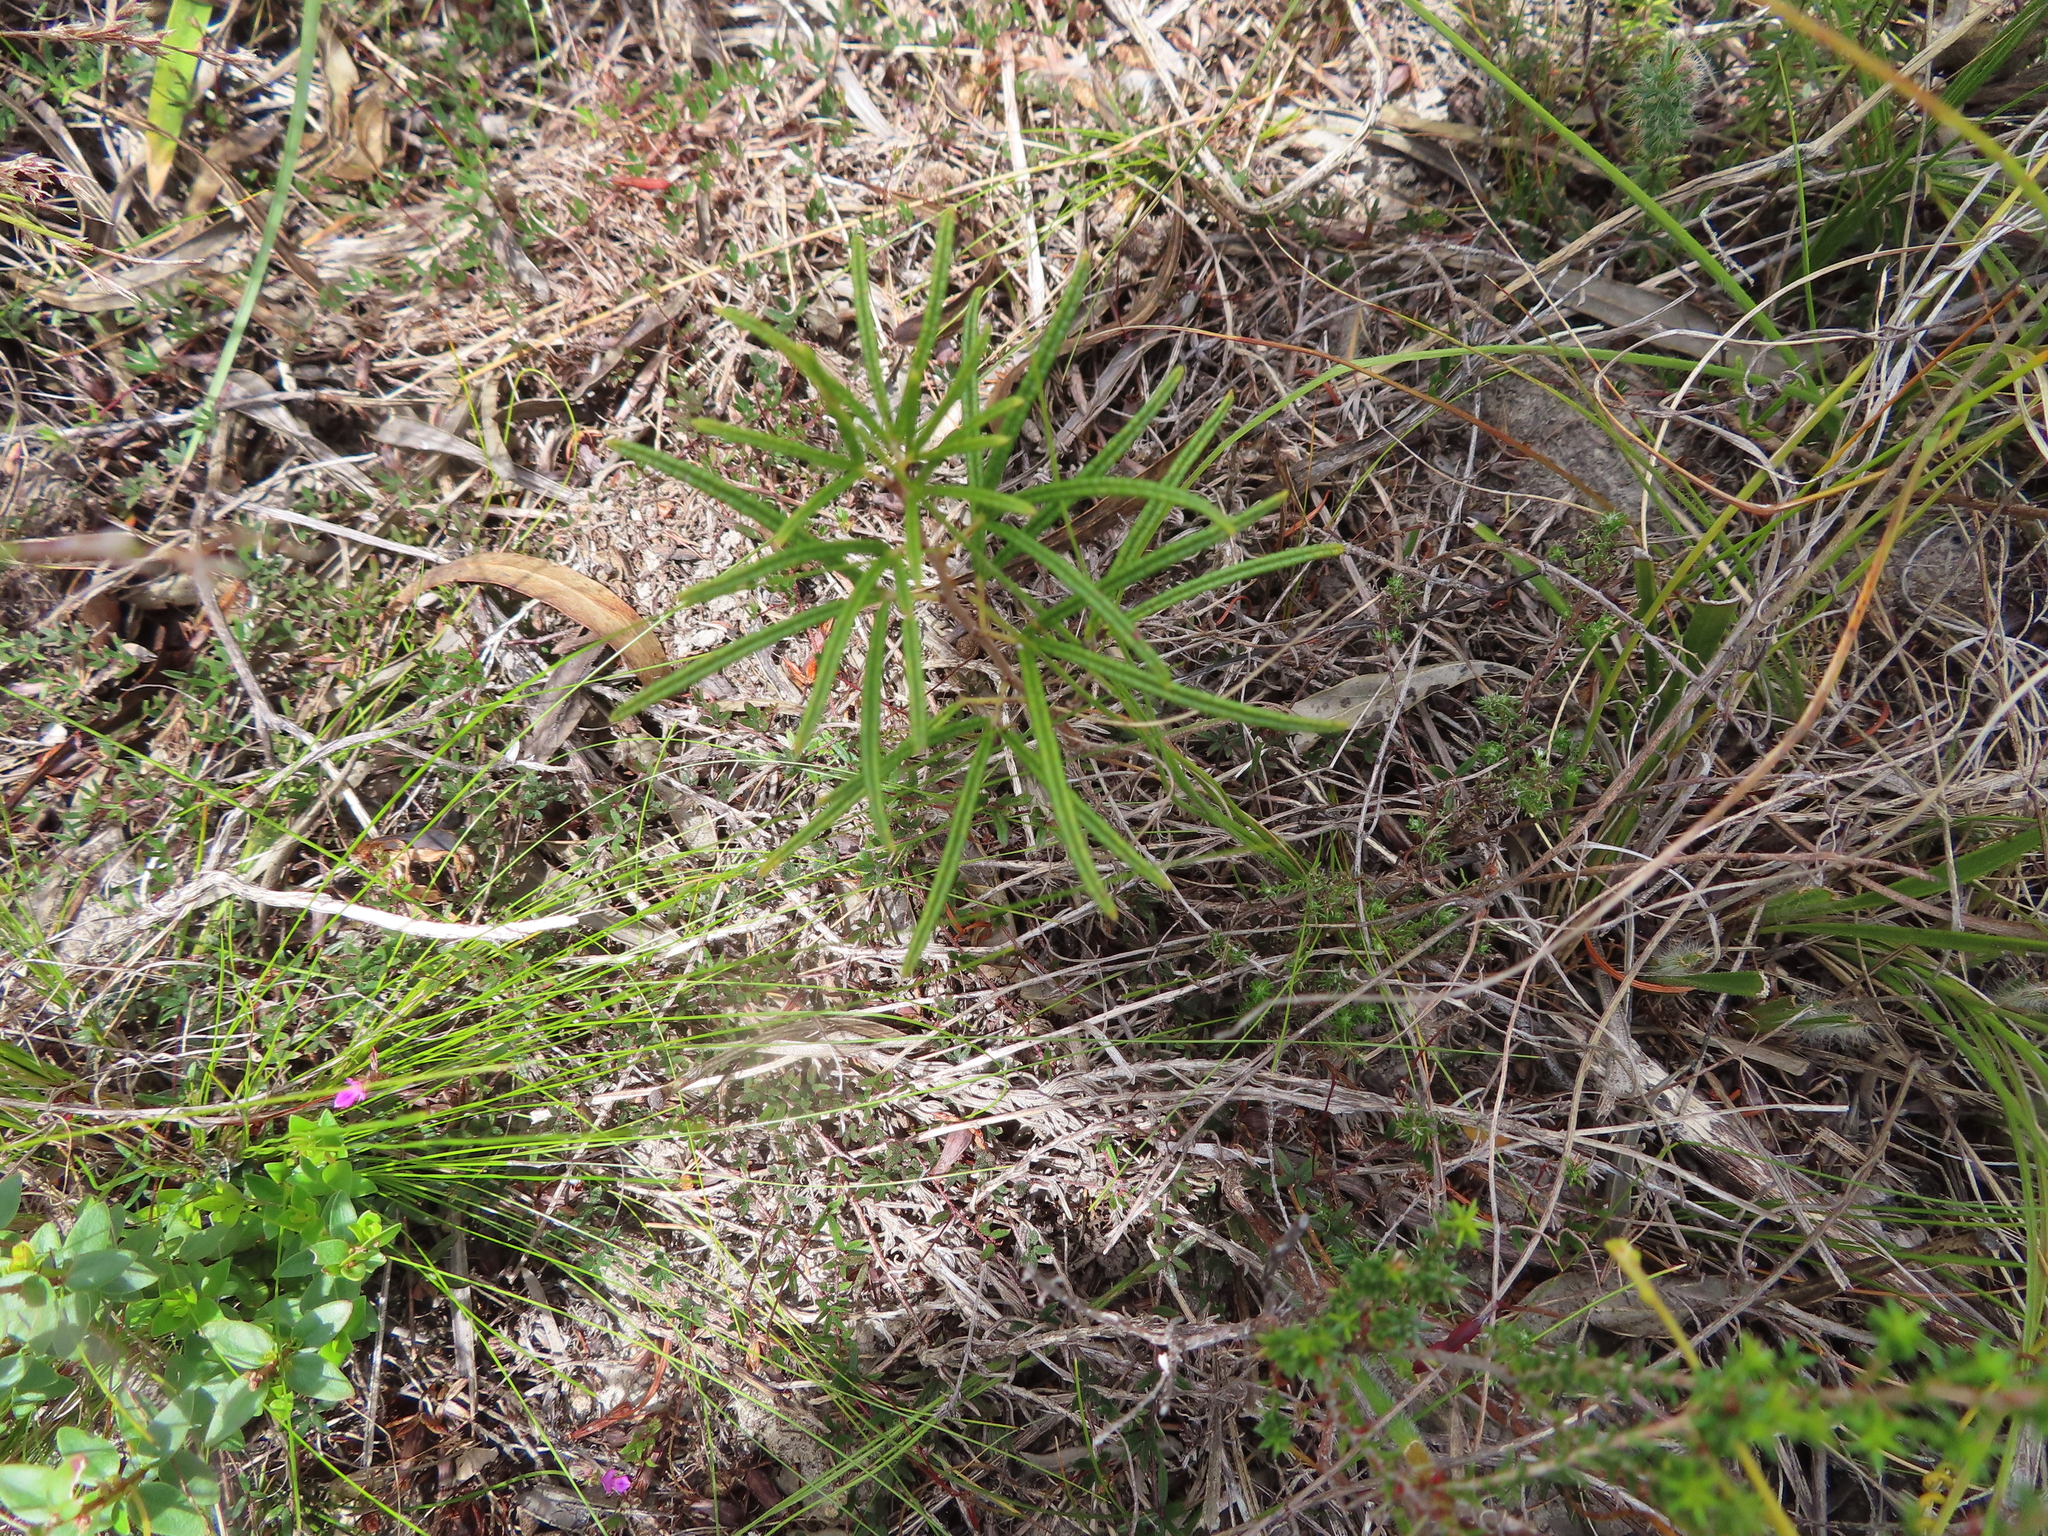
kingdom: Plantae
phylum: Tracheophyta
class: Magnoliopsida
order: Sapindales
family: Anacardiaceae
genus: Searsia
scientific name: Searsia rosmarinifolia
